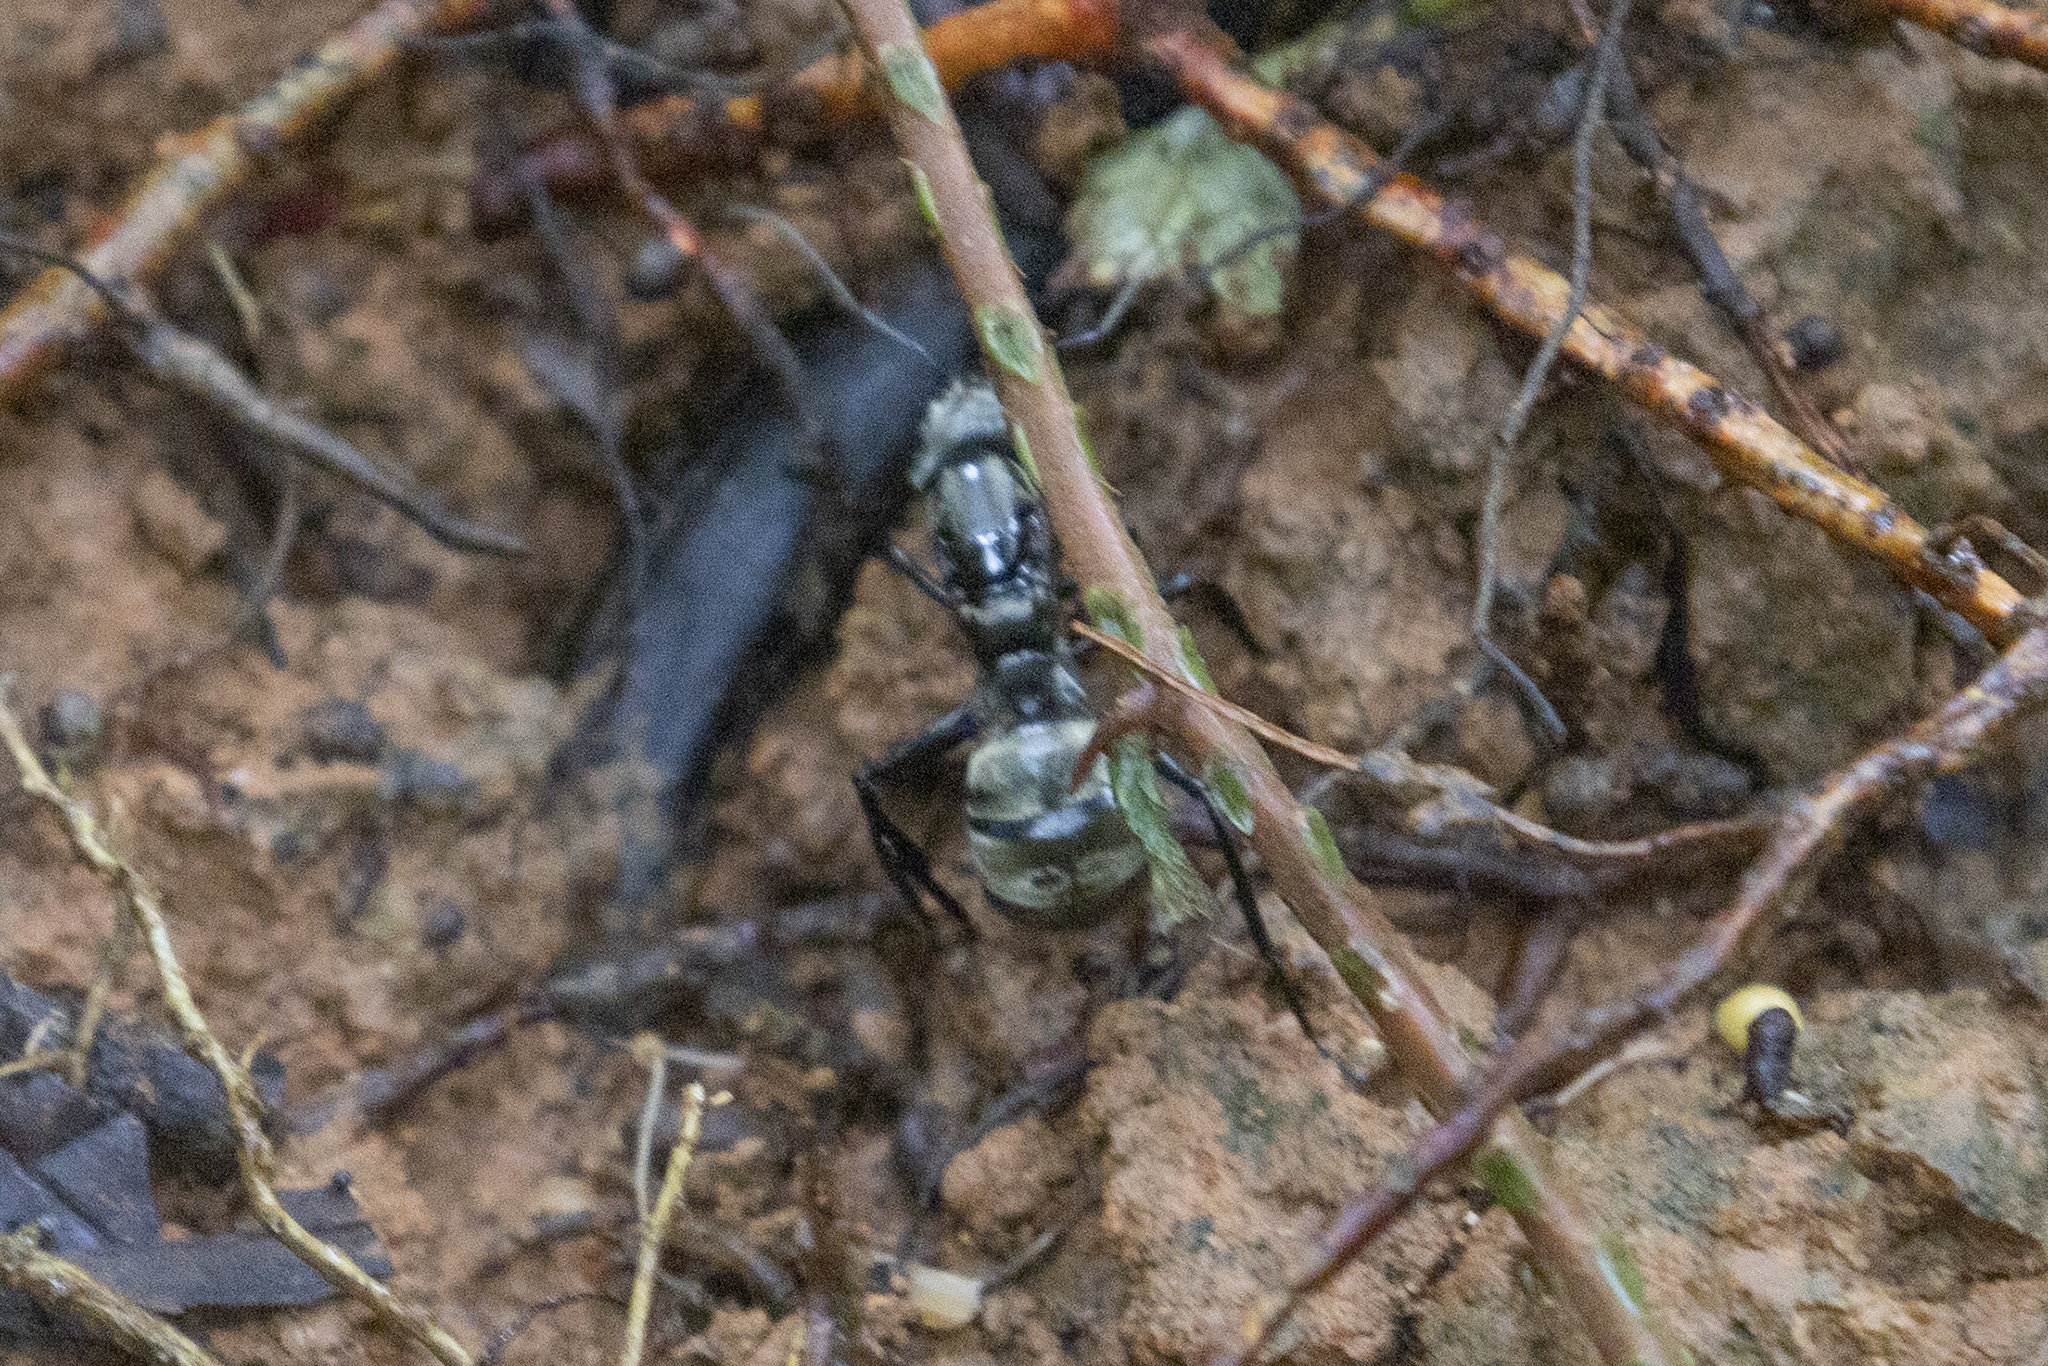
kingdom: Animalia
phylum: Arthropoda
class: Insecta
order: Hymenoptera
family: Formicidae
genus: Camponotus
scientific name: Camponotus sericeiventris
